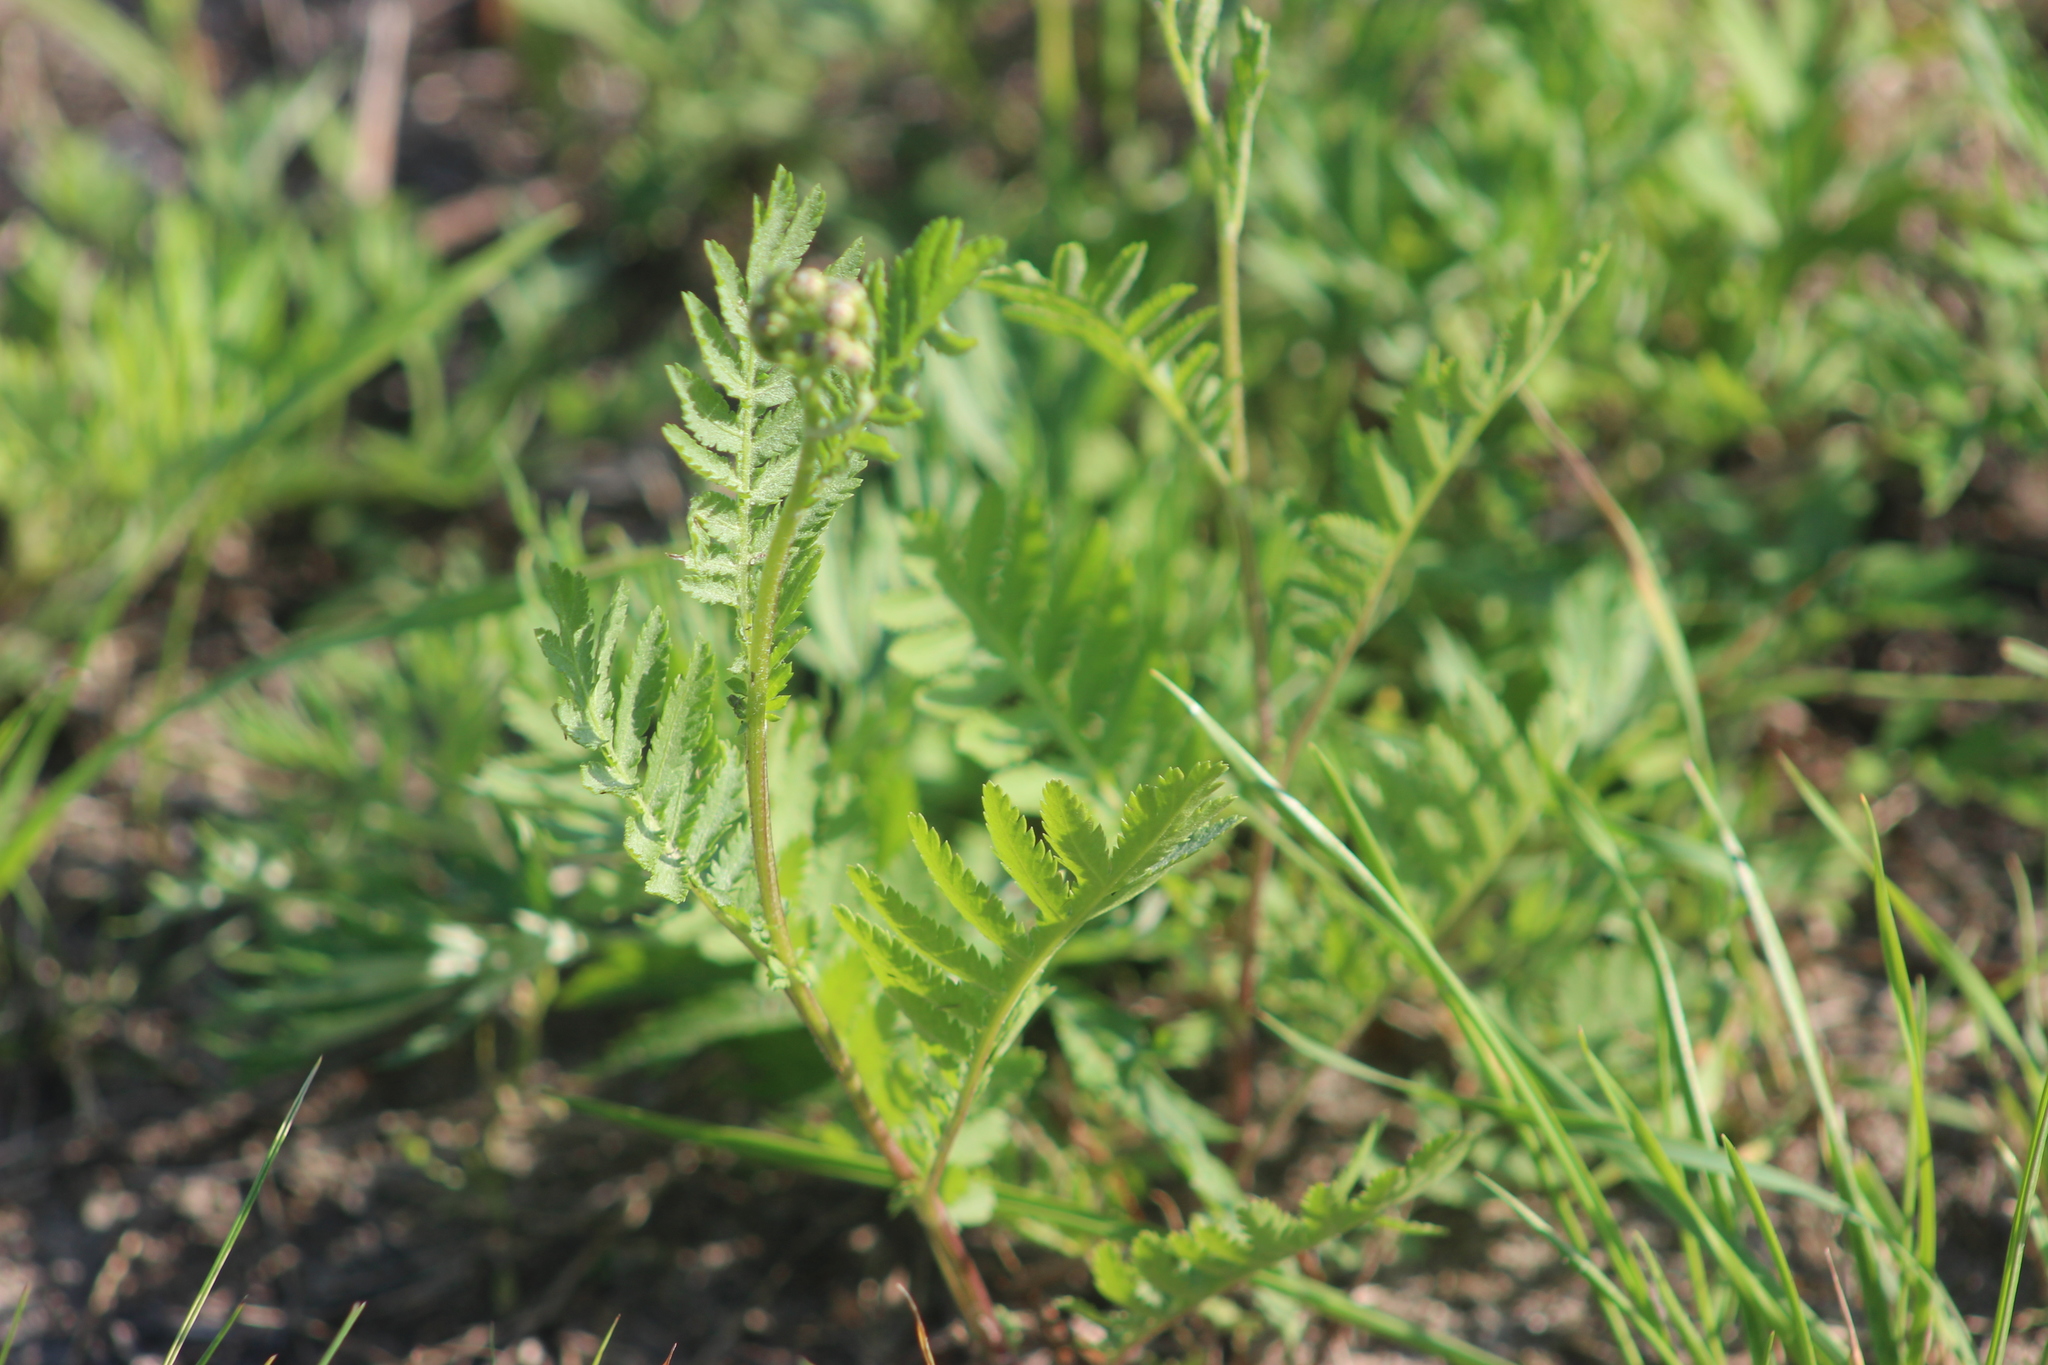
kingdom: Plantae
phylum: Tracheophyta
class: Magnoliopsida
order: Asterales
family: Asteraceae
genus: Tanacetum
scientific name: Tanacetum vulgare
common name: Common tansy
